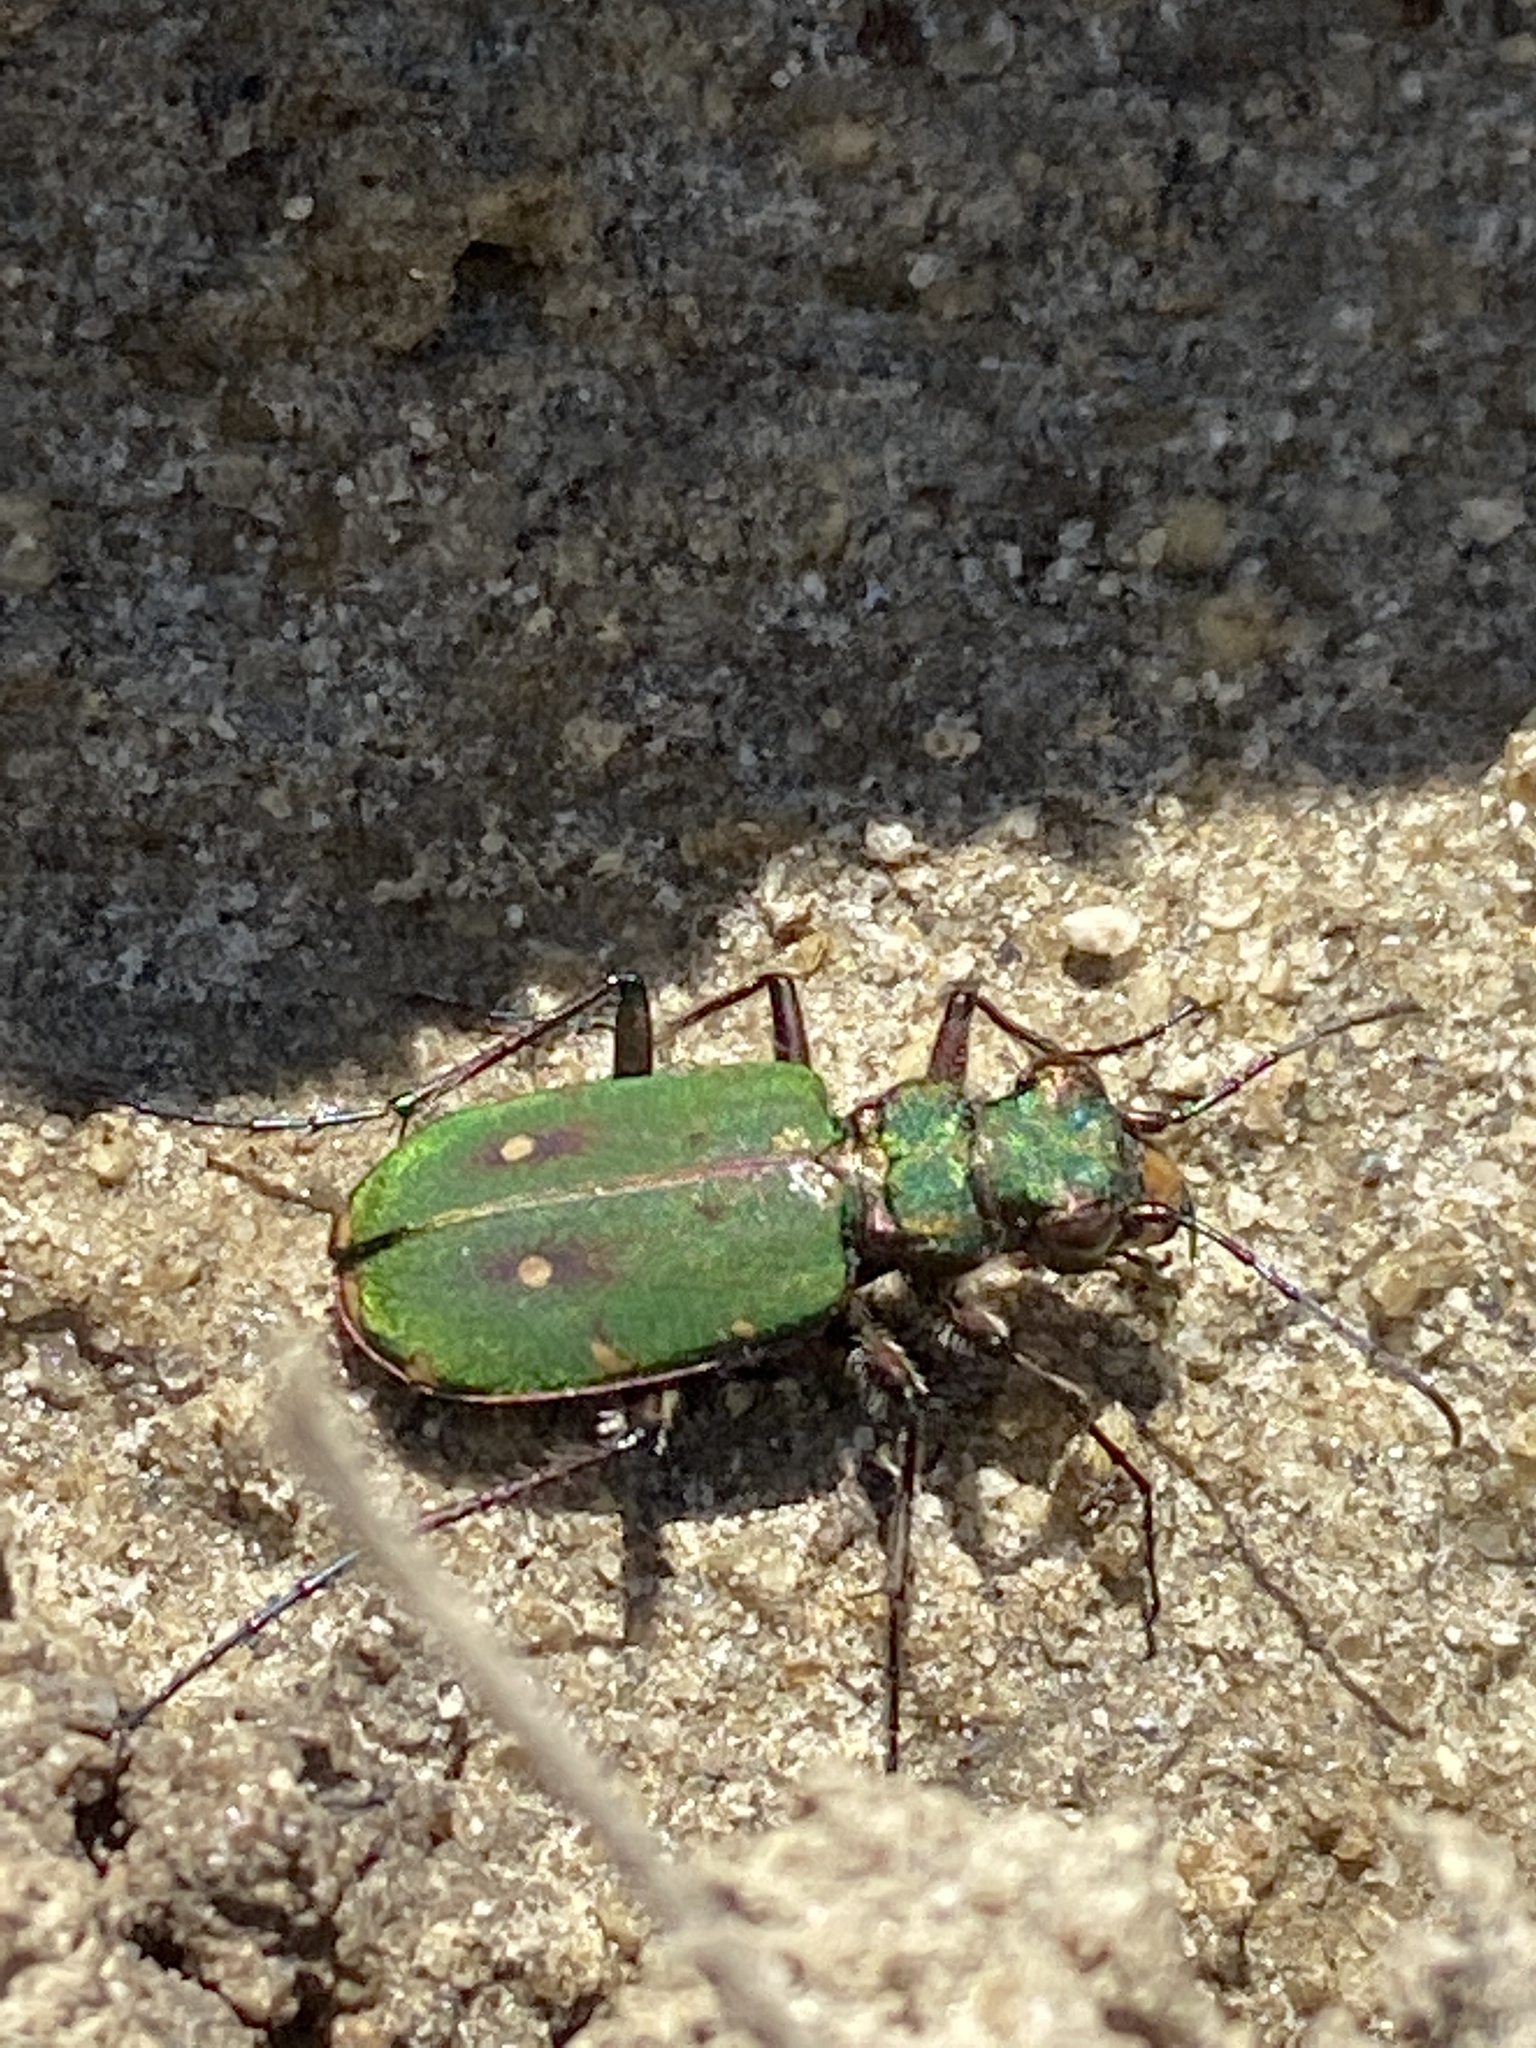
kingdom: Animalia
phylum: Arthropoda
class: Insecta
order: Coleoptera
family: Carabidae
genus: Cicindela
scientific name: Cicindela campestris
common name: Common tiger beetle
